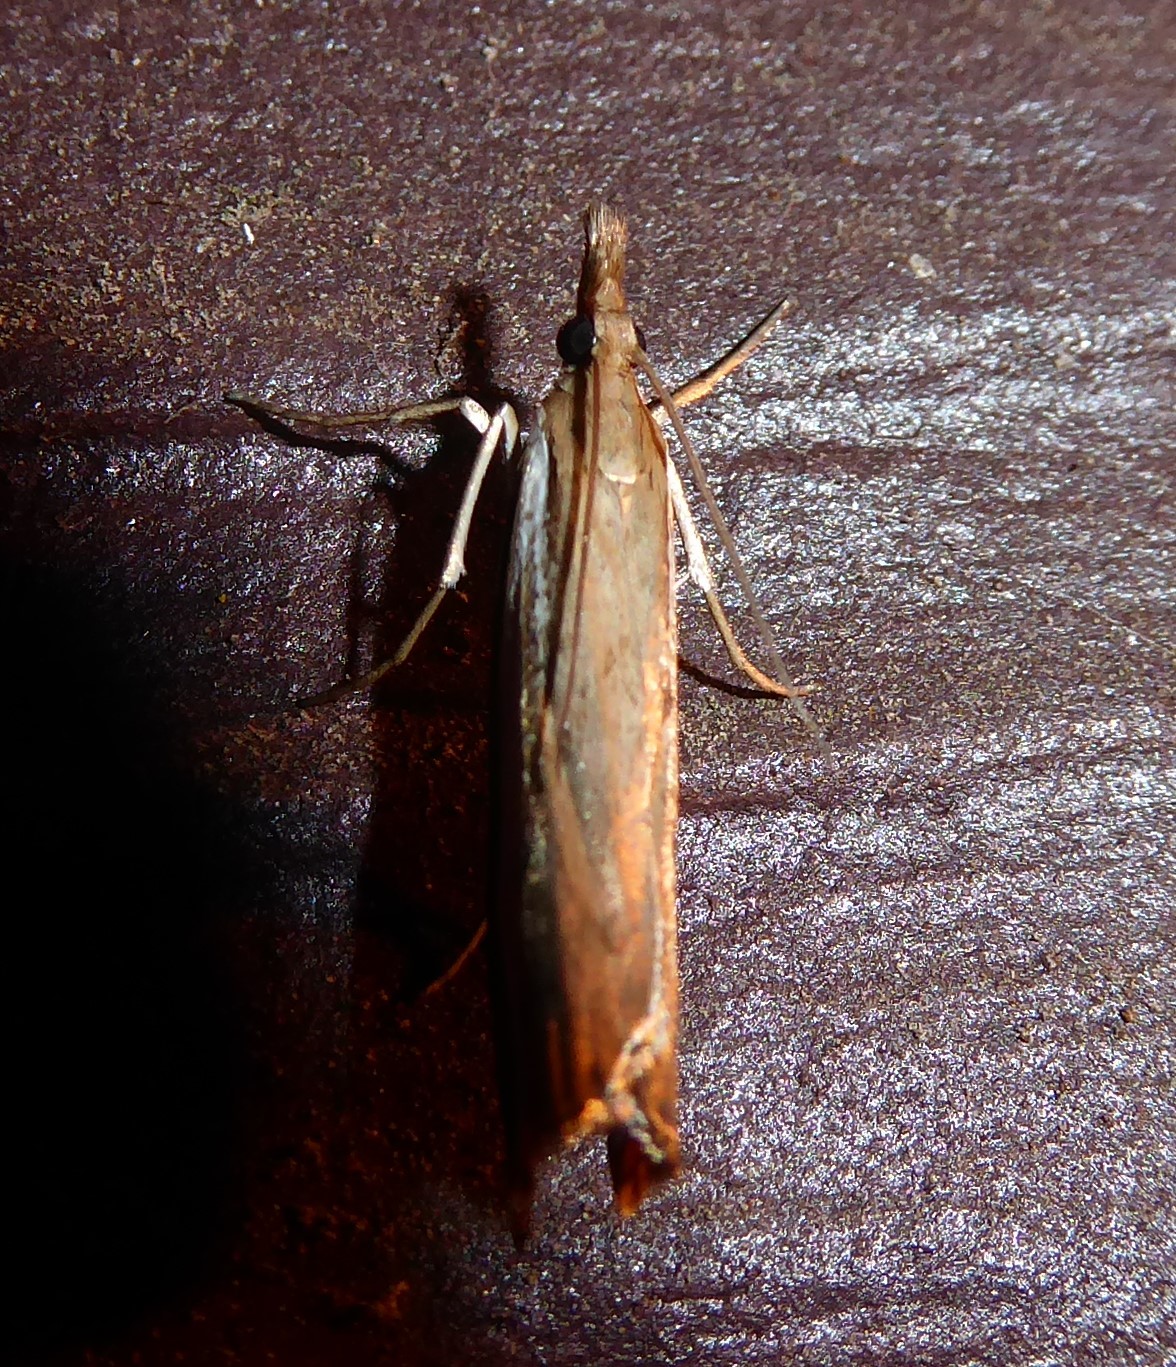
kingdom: Animalia
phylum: Arthropoda
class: Insecta
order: Lepidoptera
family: Crambidae
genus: Orocrambus
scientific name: Orocrambus flexuosellus
